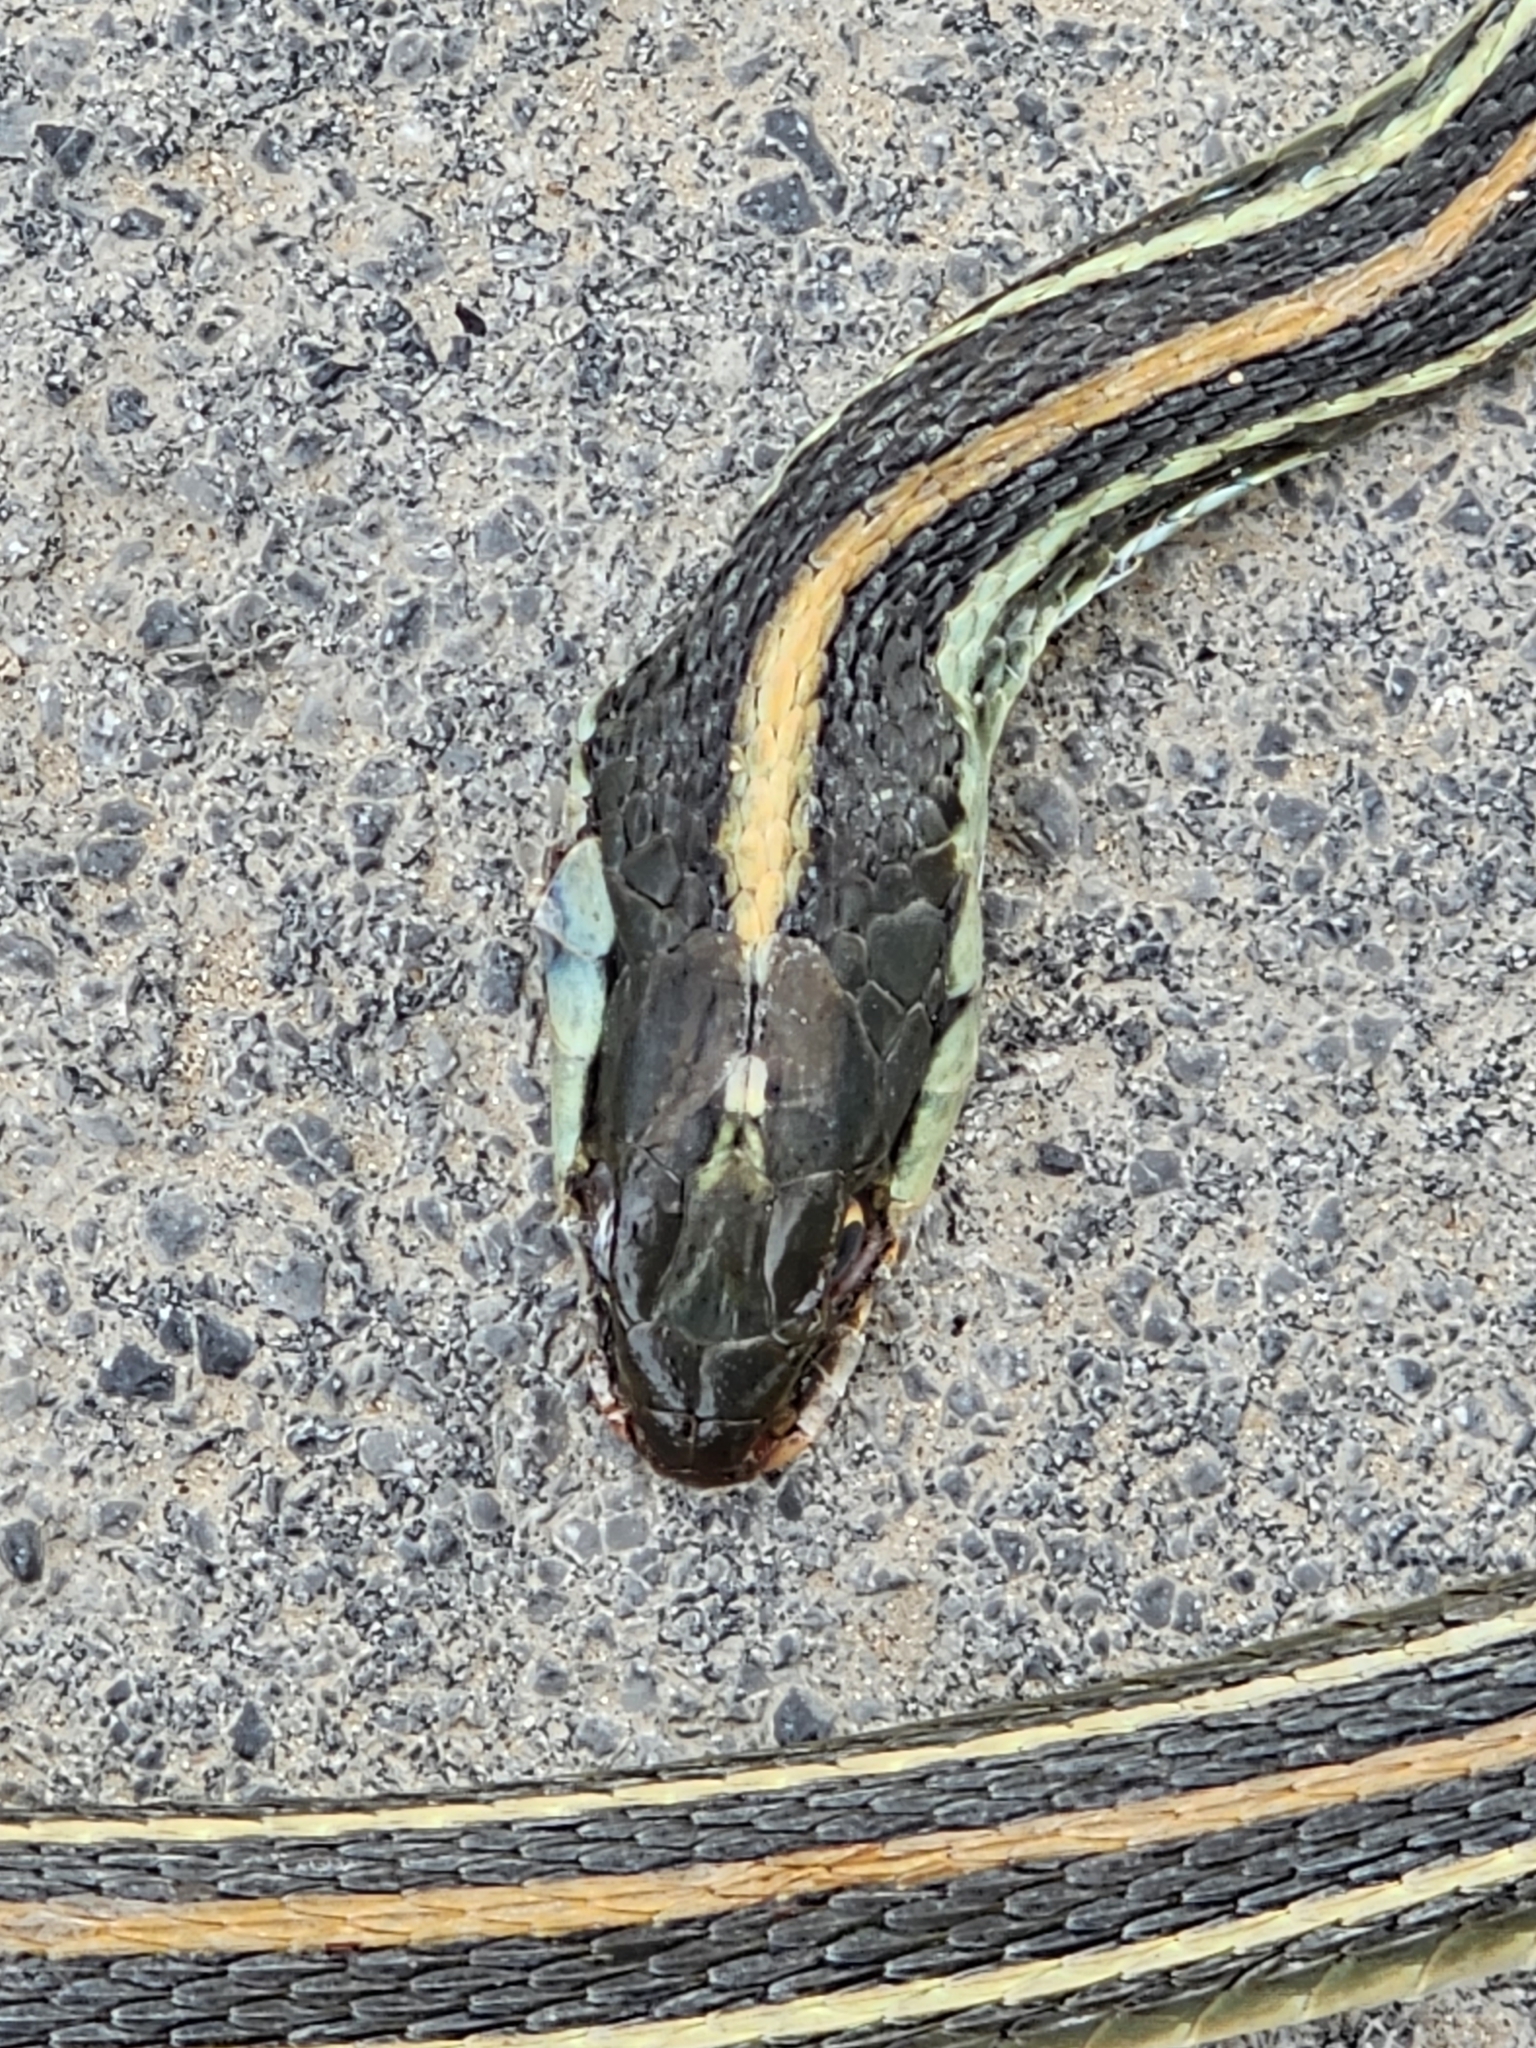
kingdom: Animalia
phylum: Chordata
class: Squamata
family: Colubridae
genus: Thamnophis
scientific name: Thamnophis proximus
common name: Western ribbon snake
